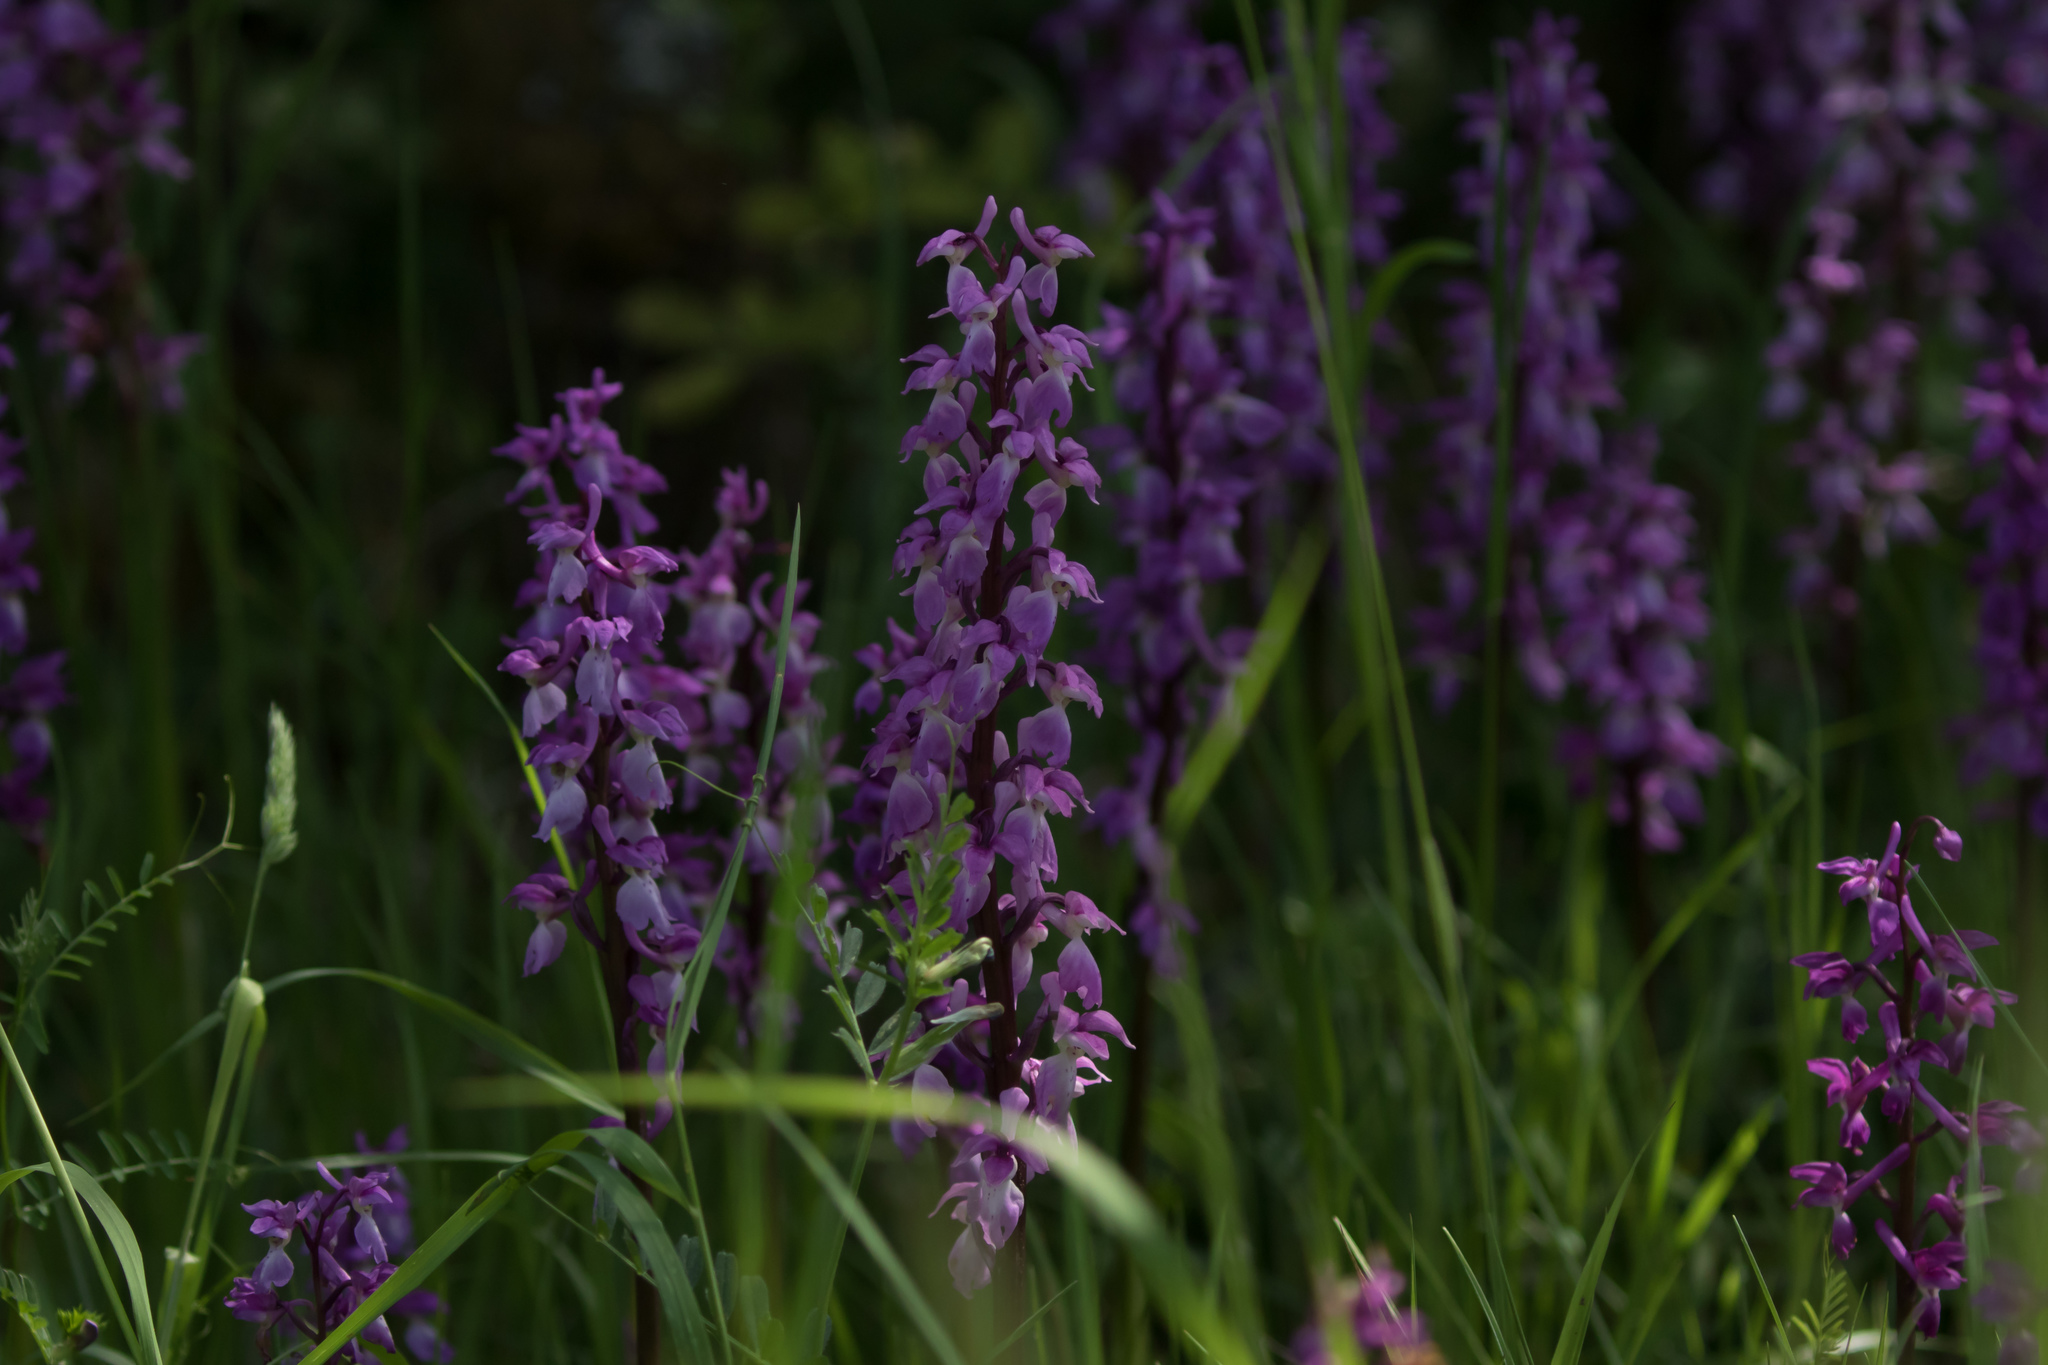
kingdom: Plantae
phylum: Tracheophyta
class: Liliopsida
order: Asparagales
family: Orchidaceae
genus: Orchis
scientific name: Orchis mascula
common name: Early-purple orchid
